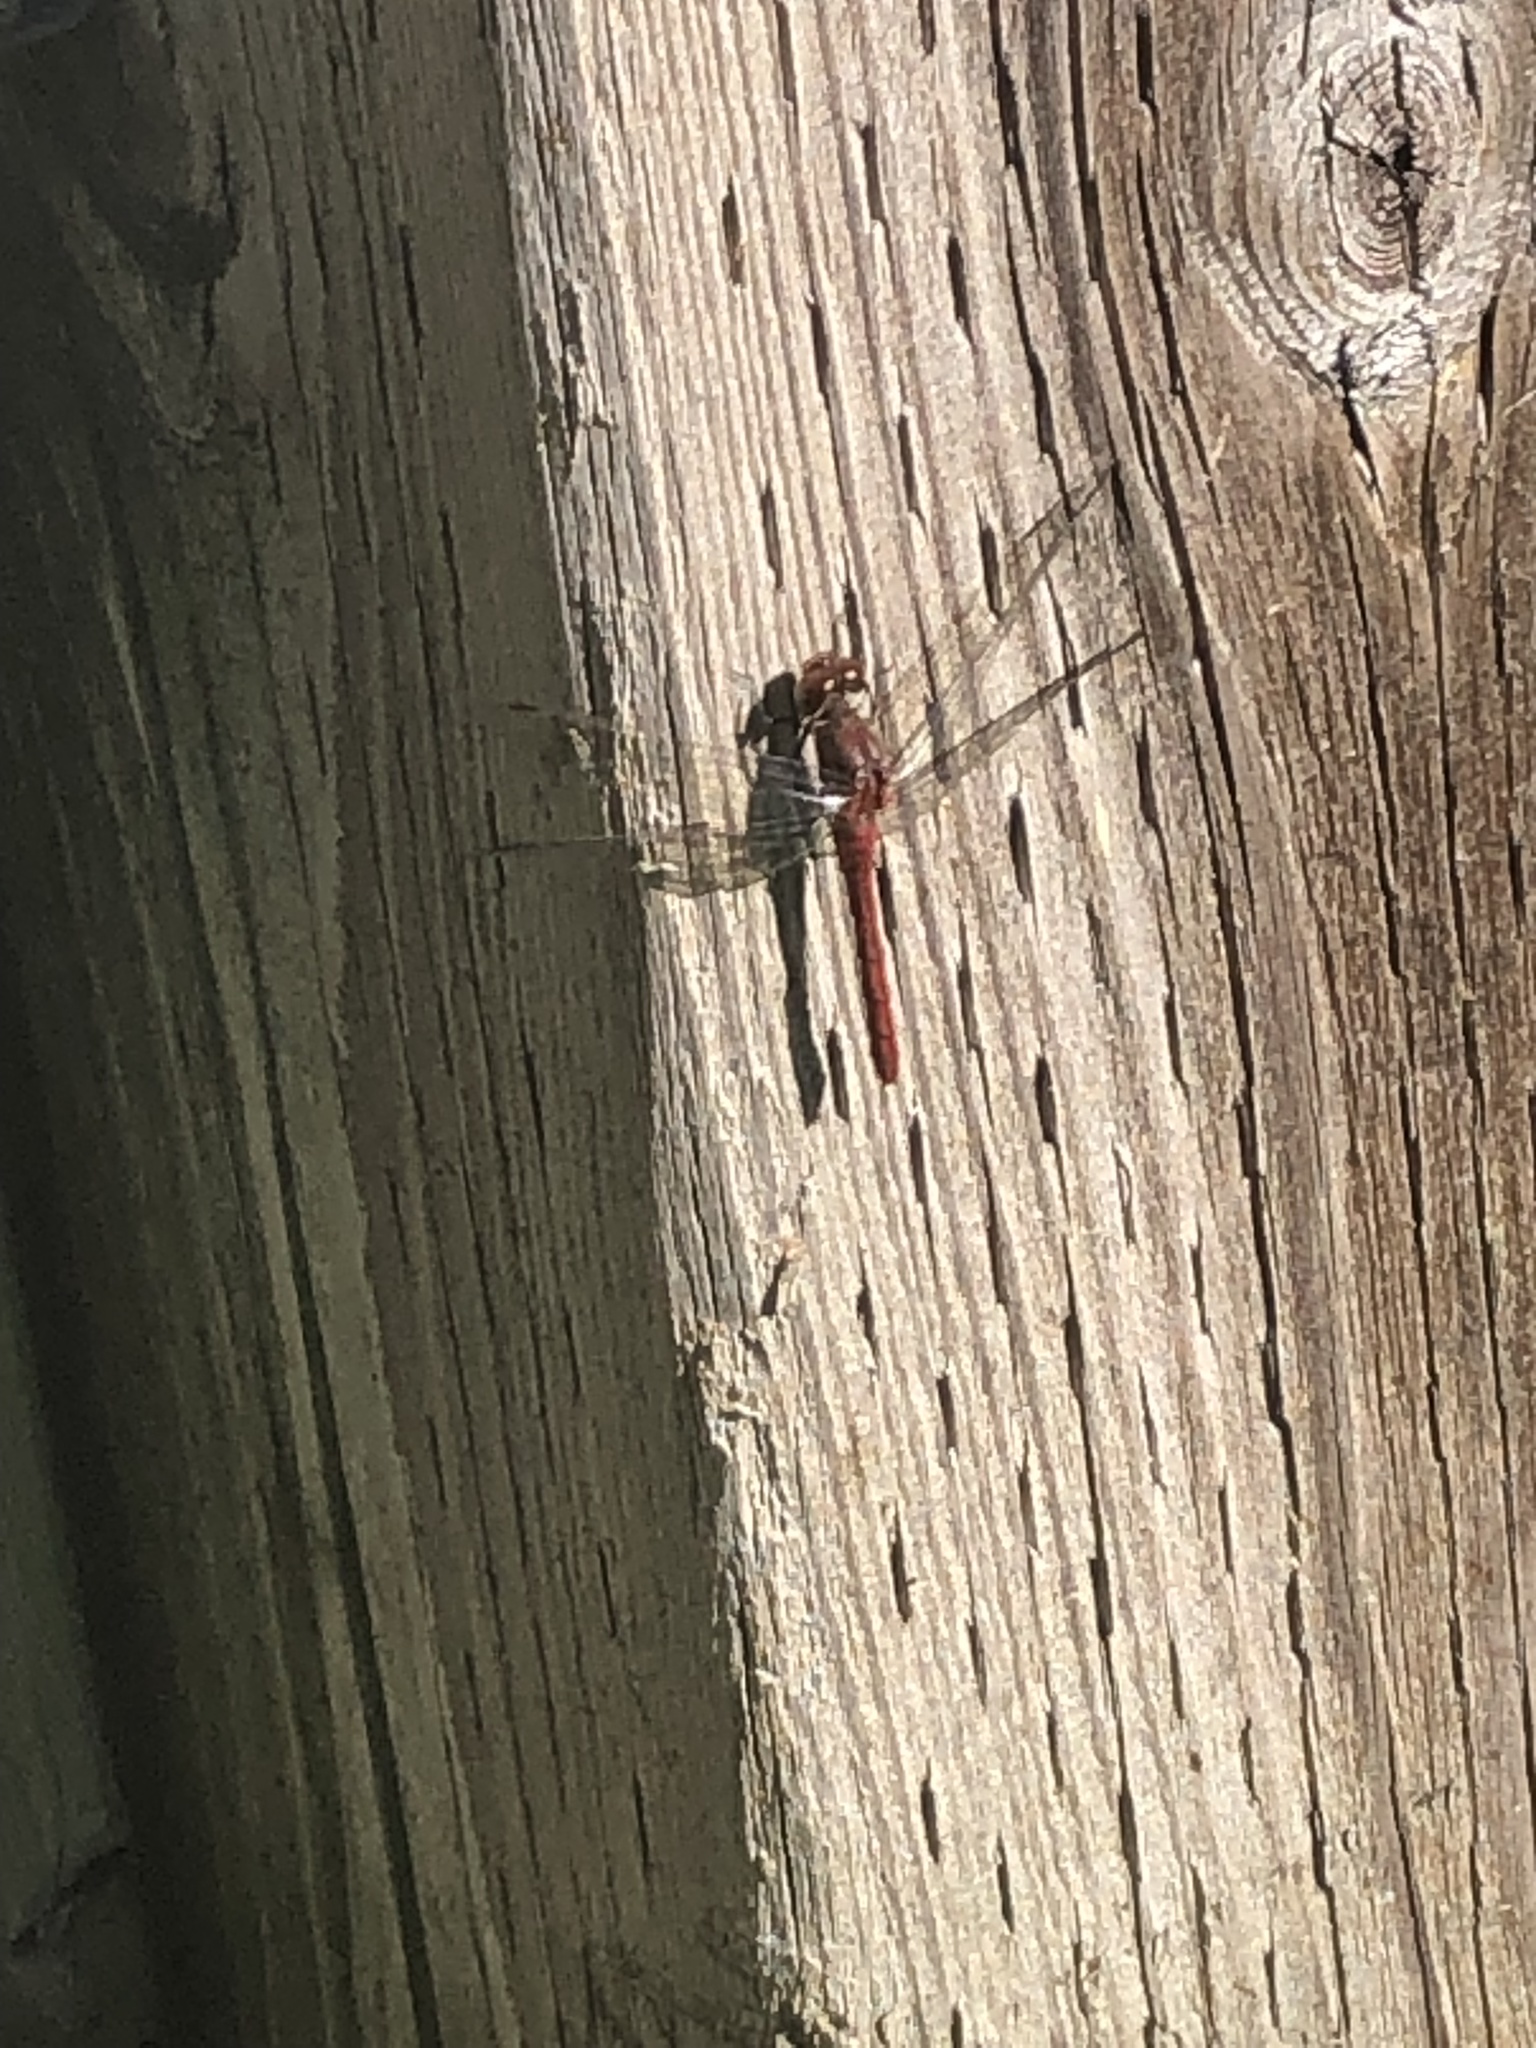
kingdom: Animalia
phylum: Arthropoda
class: Insecta
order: Odonata
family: Libellulidae
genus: Sympetrum
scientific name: Sympetrum vicinum
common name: Autumn meadowhawk
